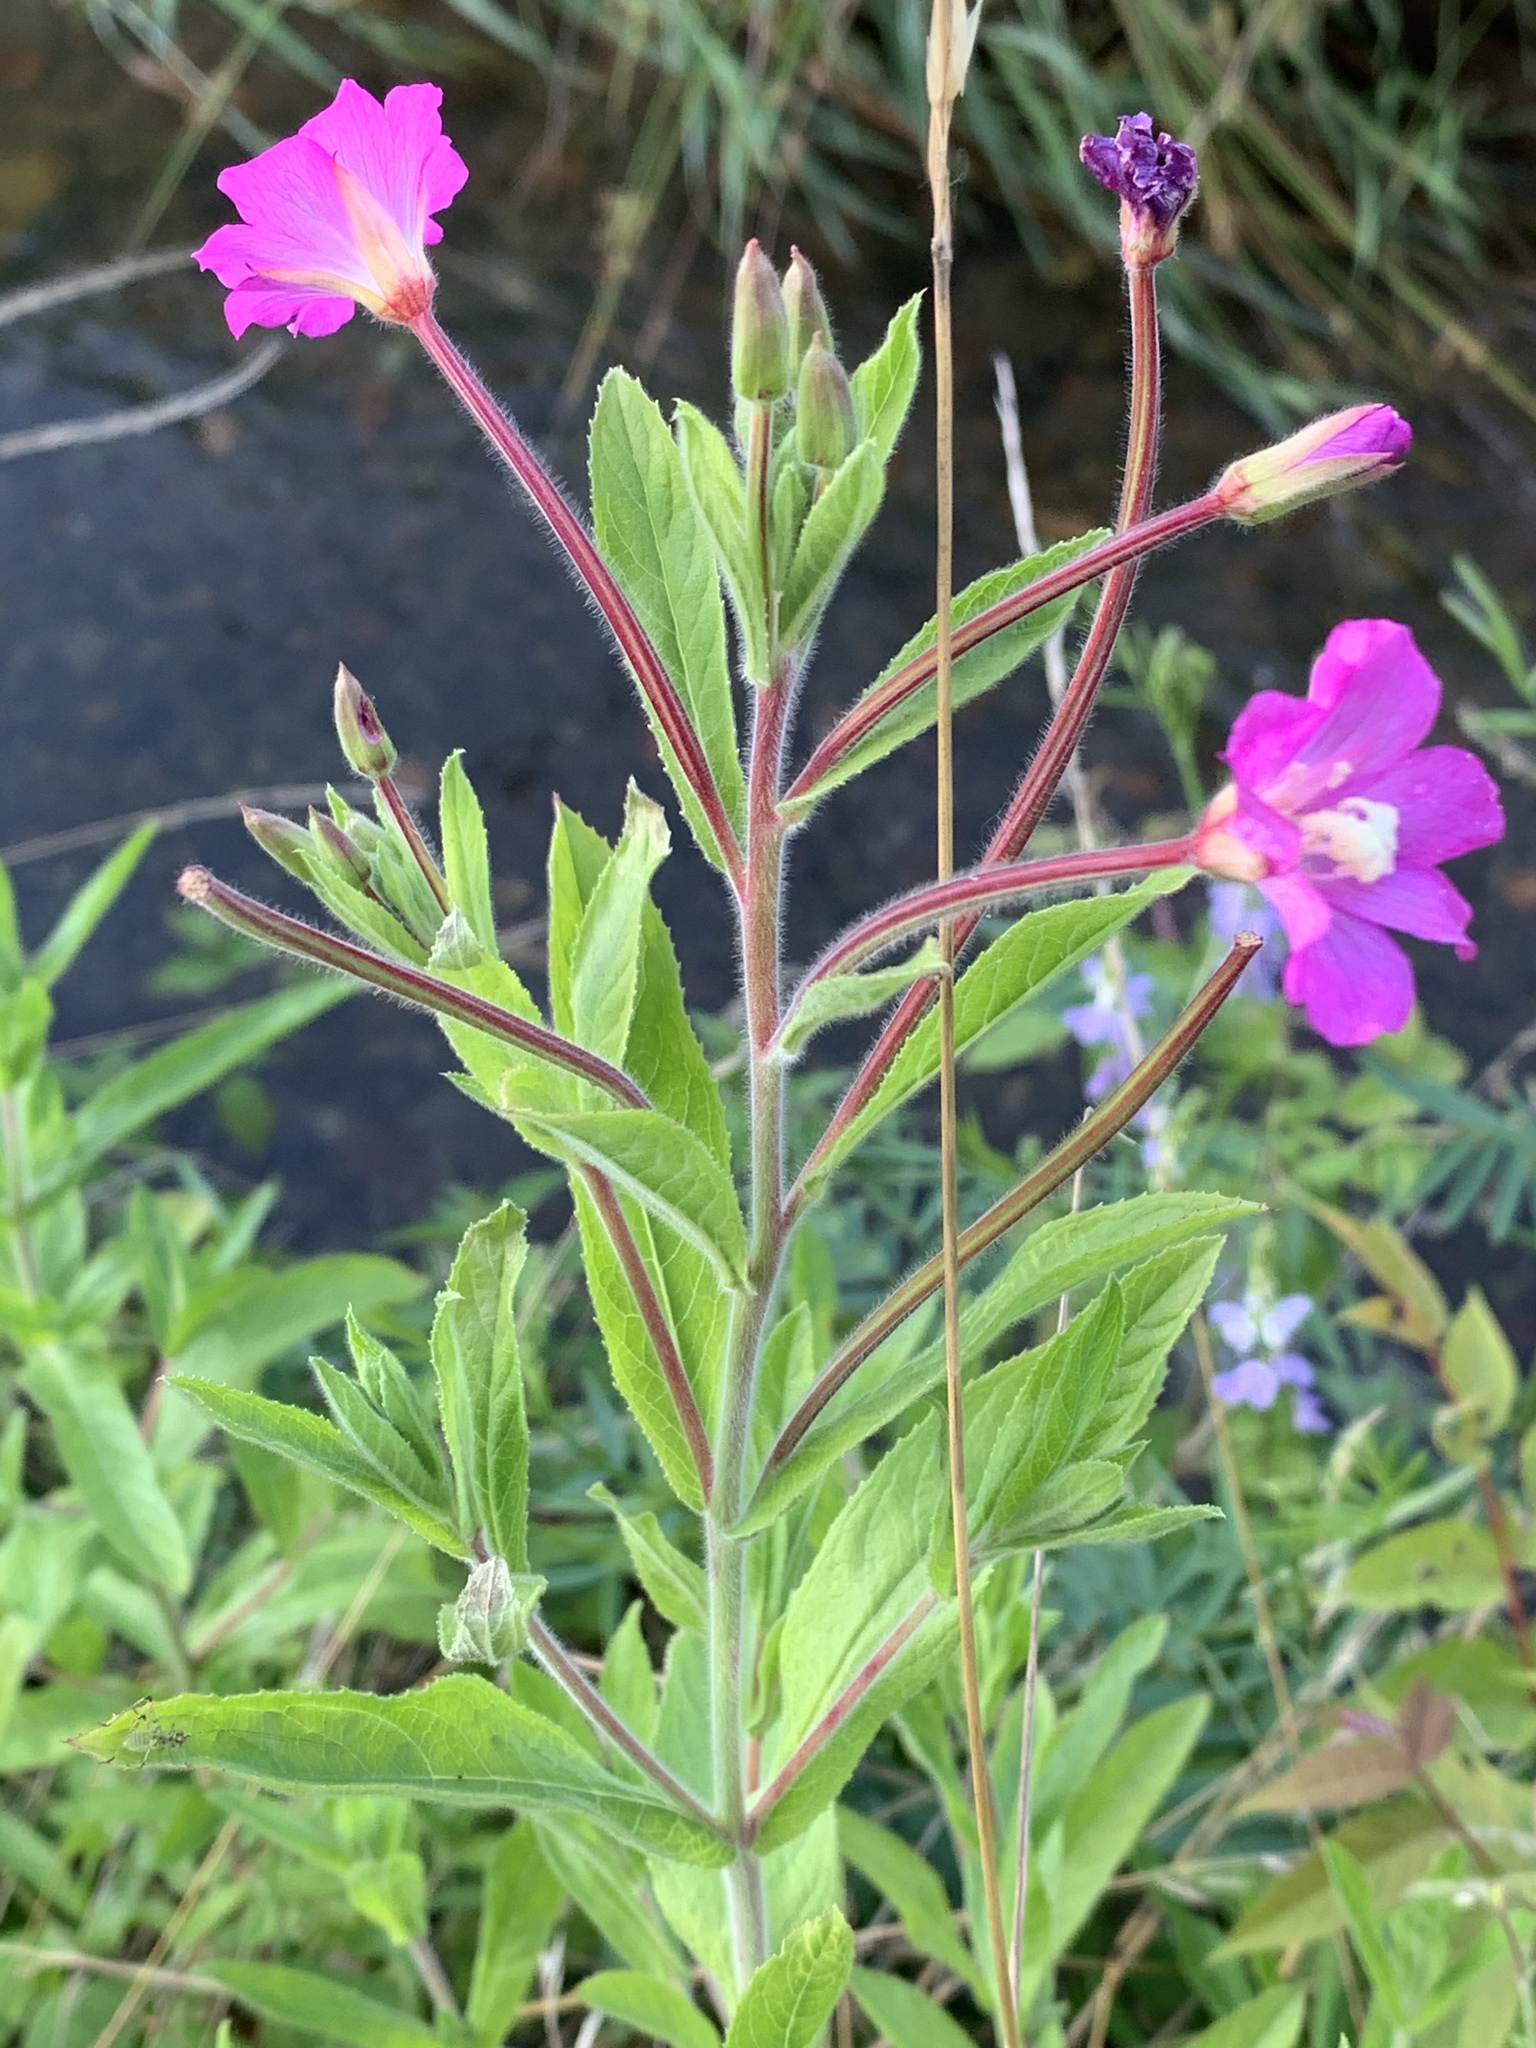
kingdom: Plantae
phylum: Tracheophyta
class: Magnoliopsida
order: Myrtales
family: Onagraceae
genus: Epilobium
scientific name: Epilobium hirsutum
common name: Great willowherb
